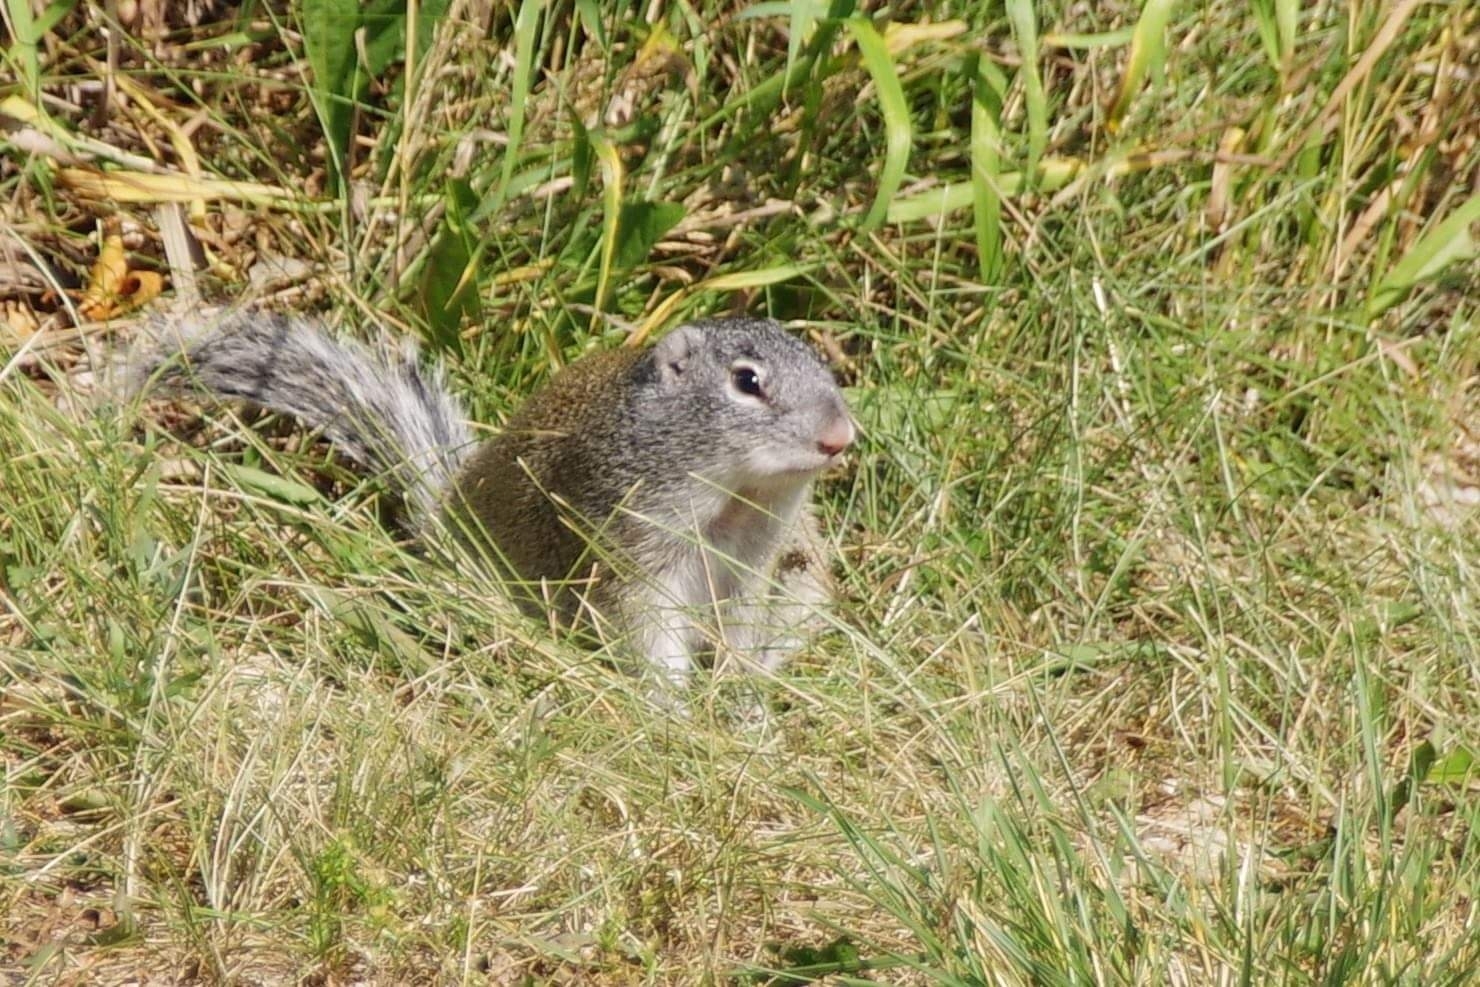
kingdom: Animalia
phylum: Chordata
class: Mammalia
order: Rodentia
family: Sciuridae
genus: Poliocitellus
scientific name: Poliocitellus franklinii
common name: Franklin's ground squirrel
